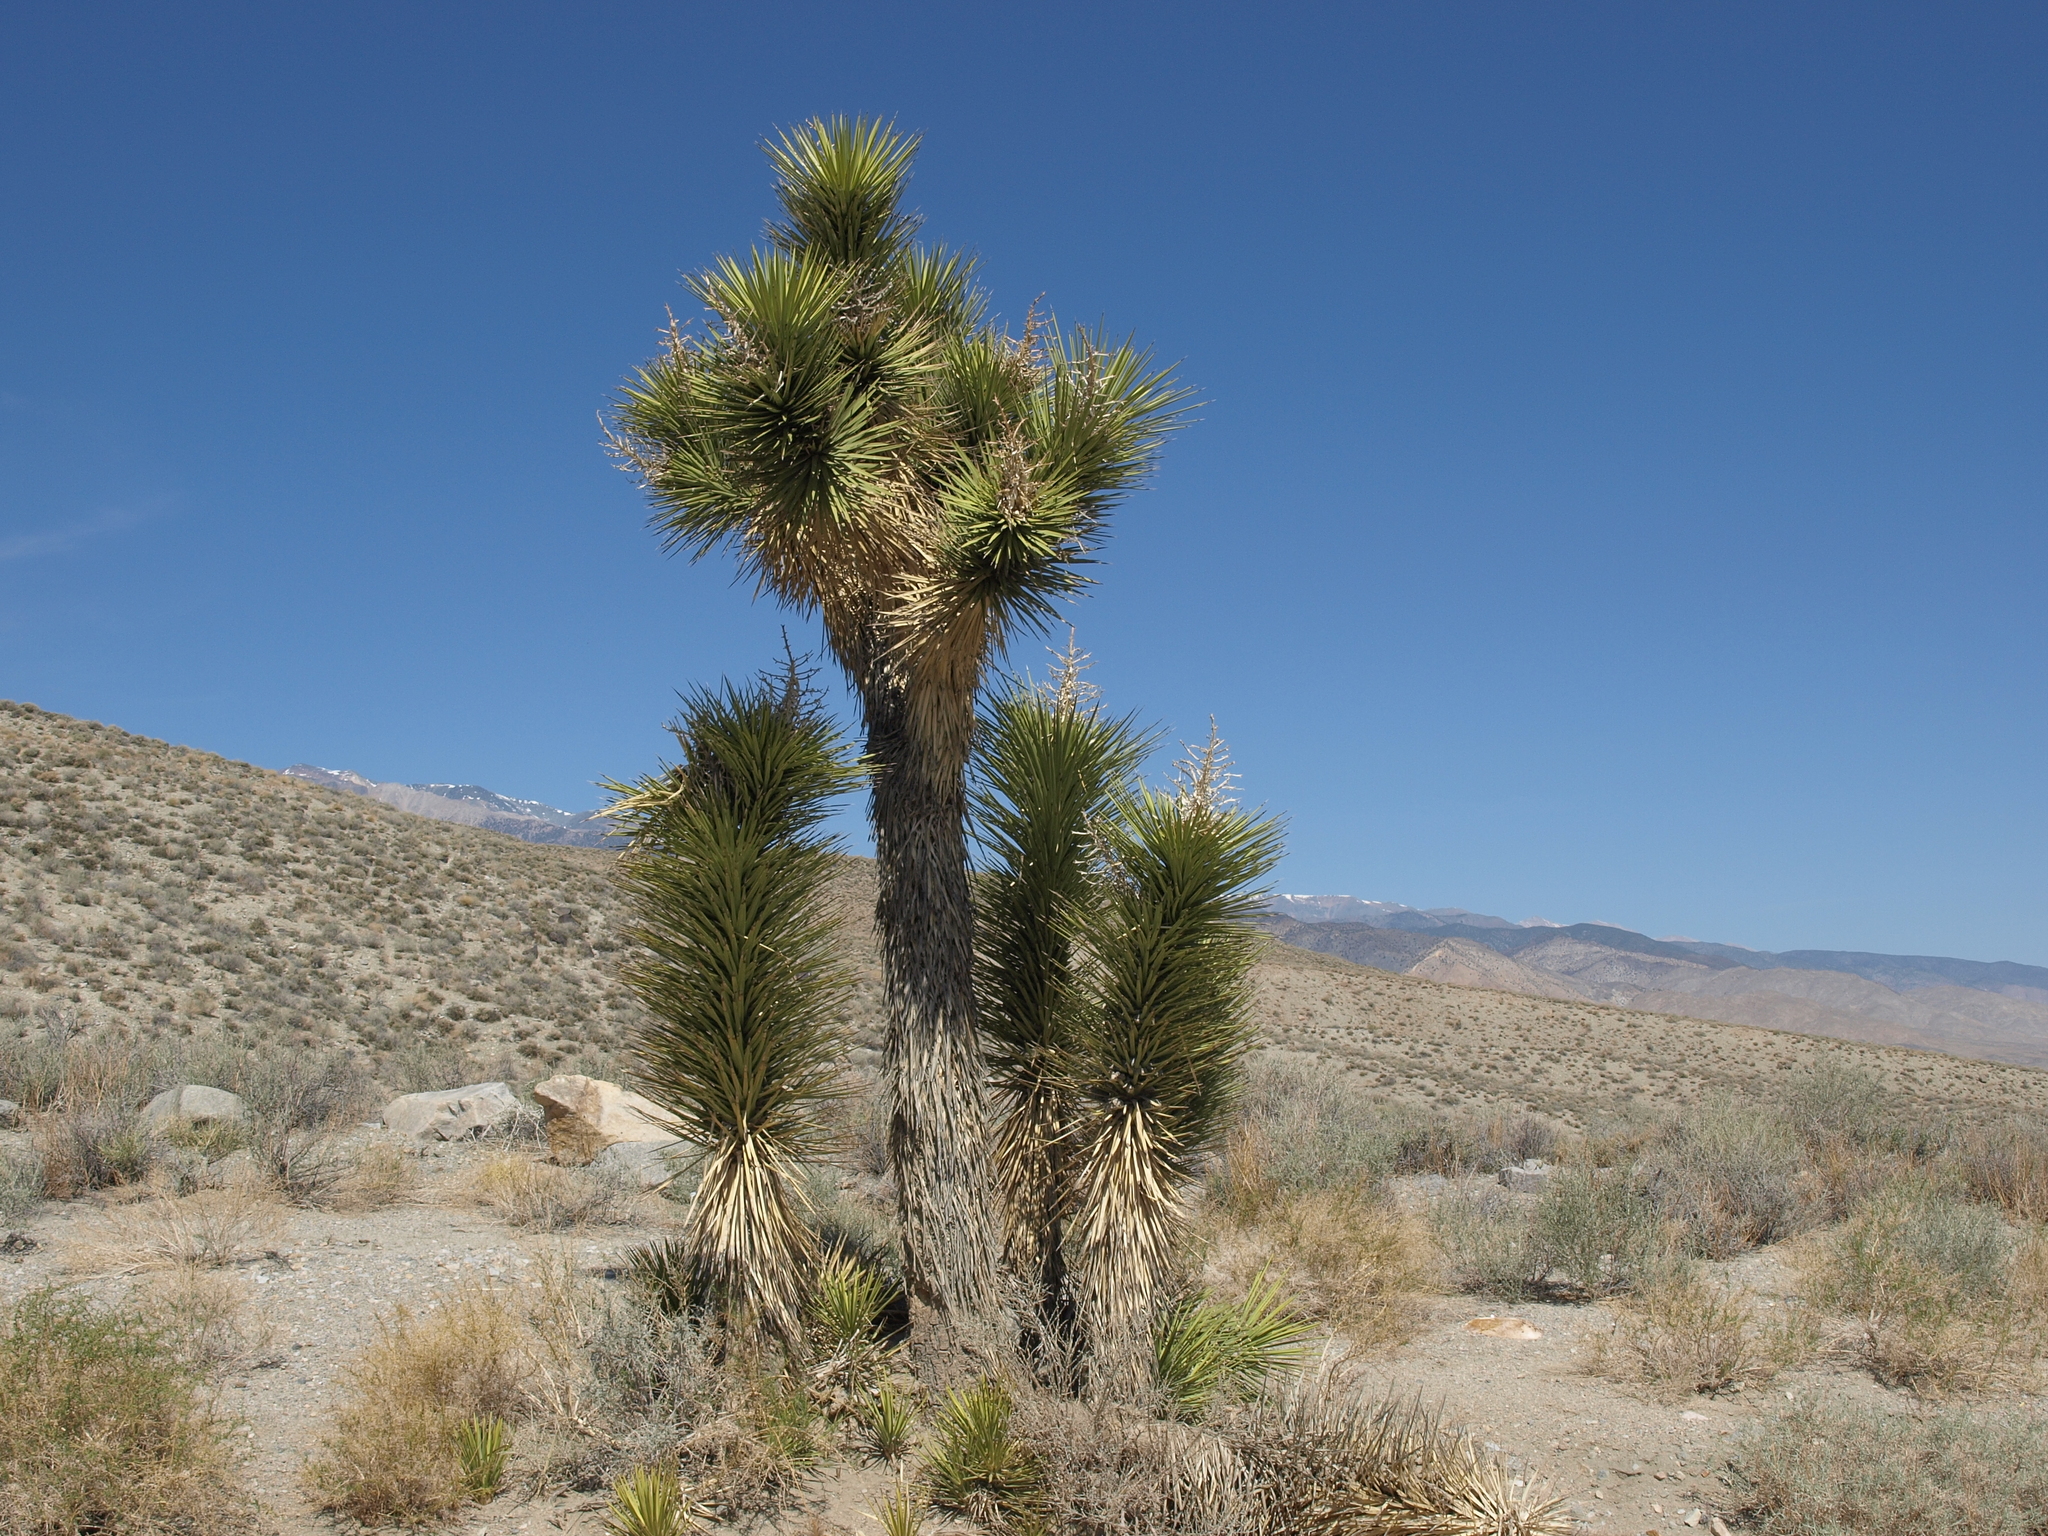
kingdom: Plantae
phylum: Tracheophyta
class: Liliopsida
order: Asparagales
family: Asparagaceae
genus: Yucca
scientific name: Yucca brevifolia
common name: Joshua tree
